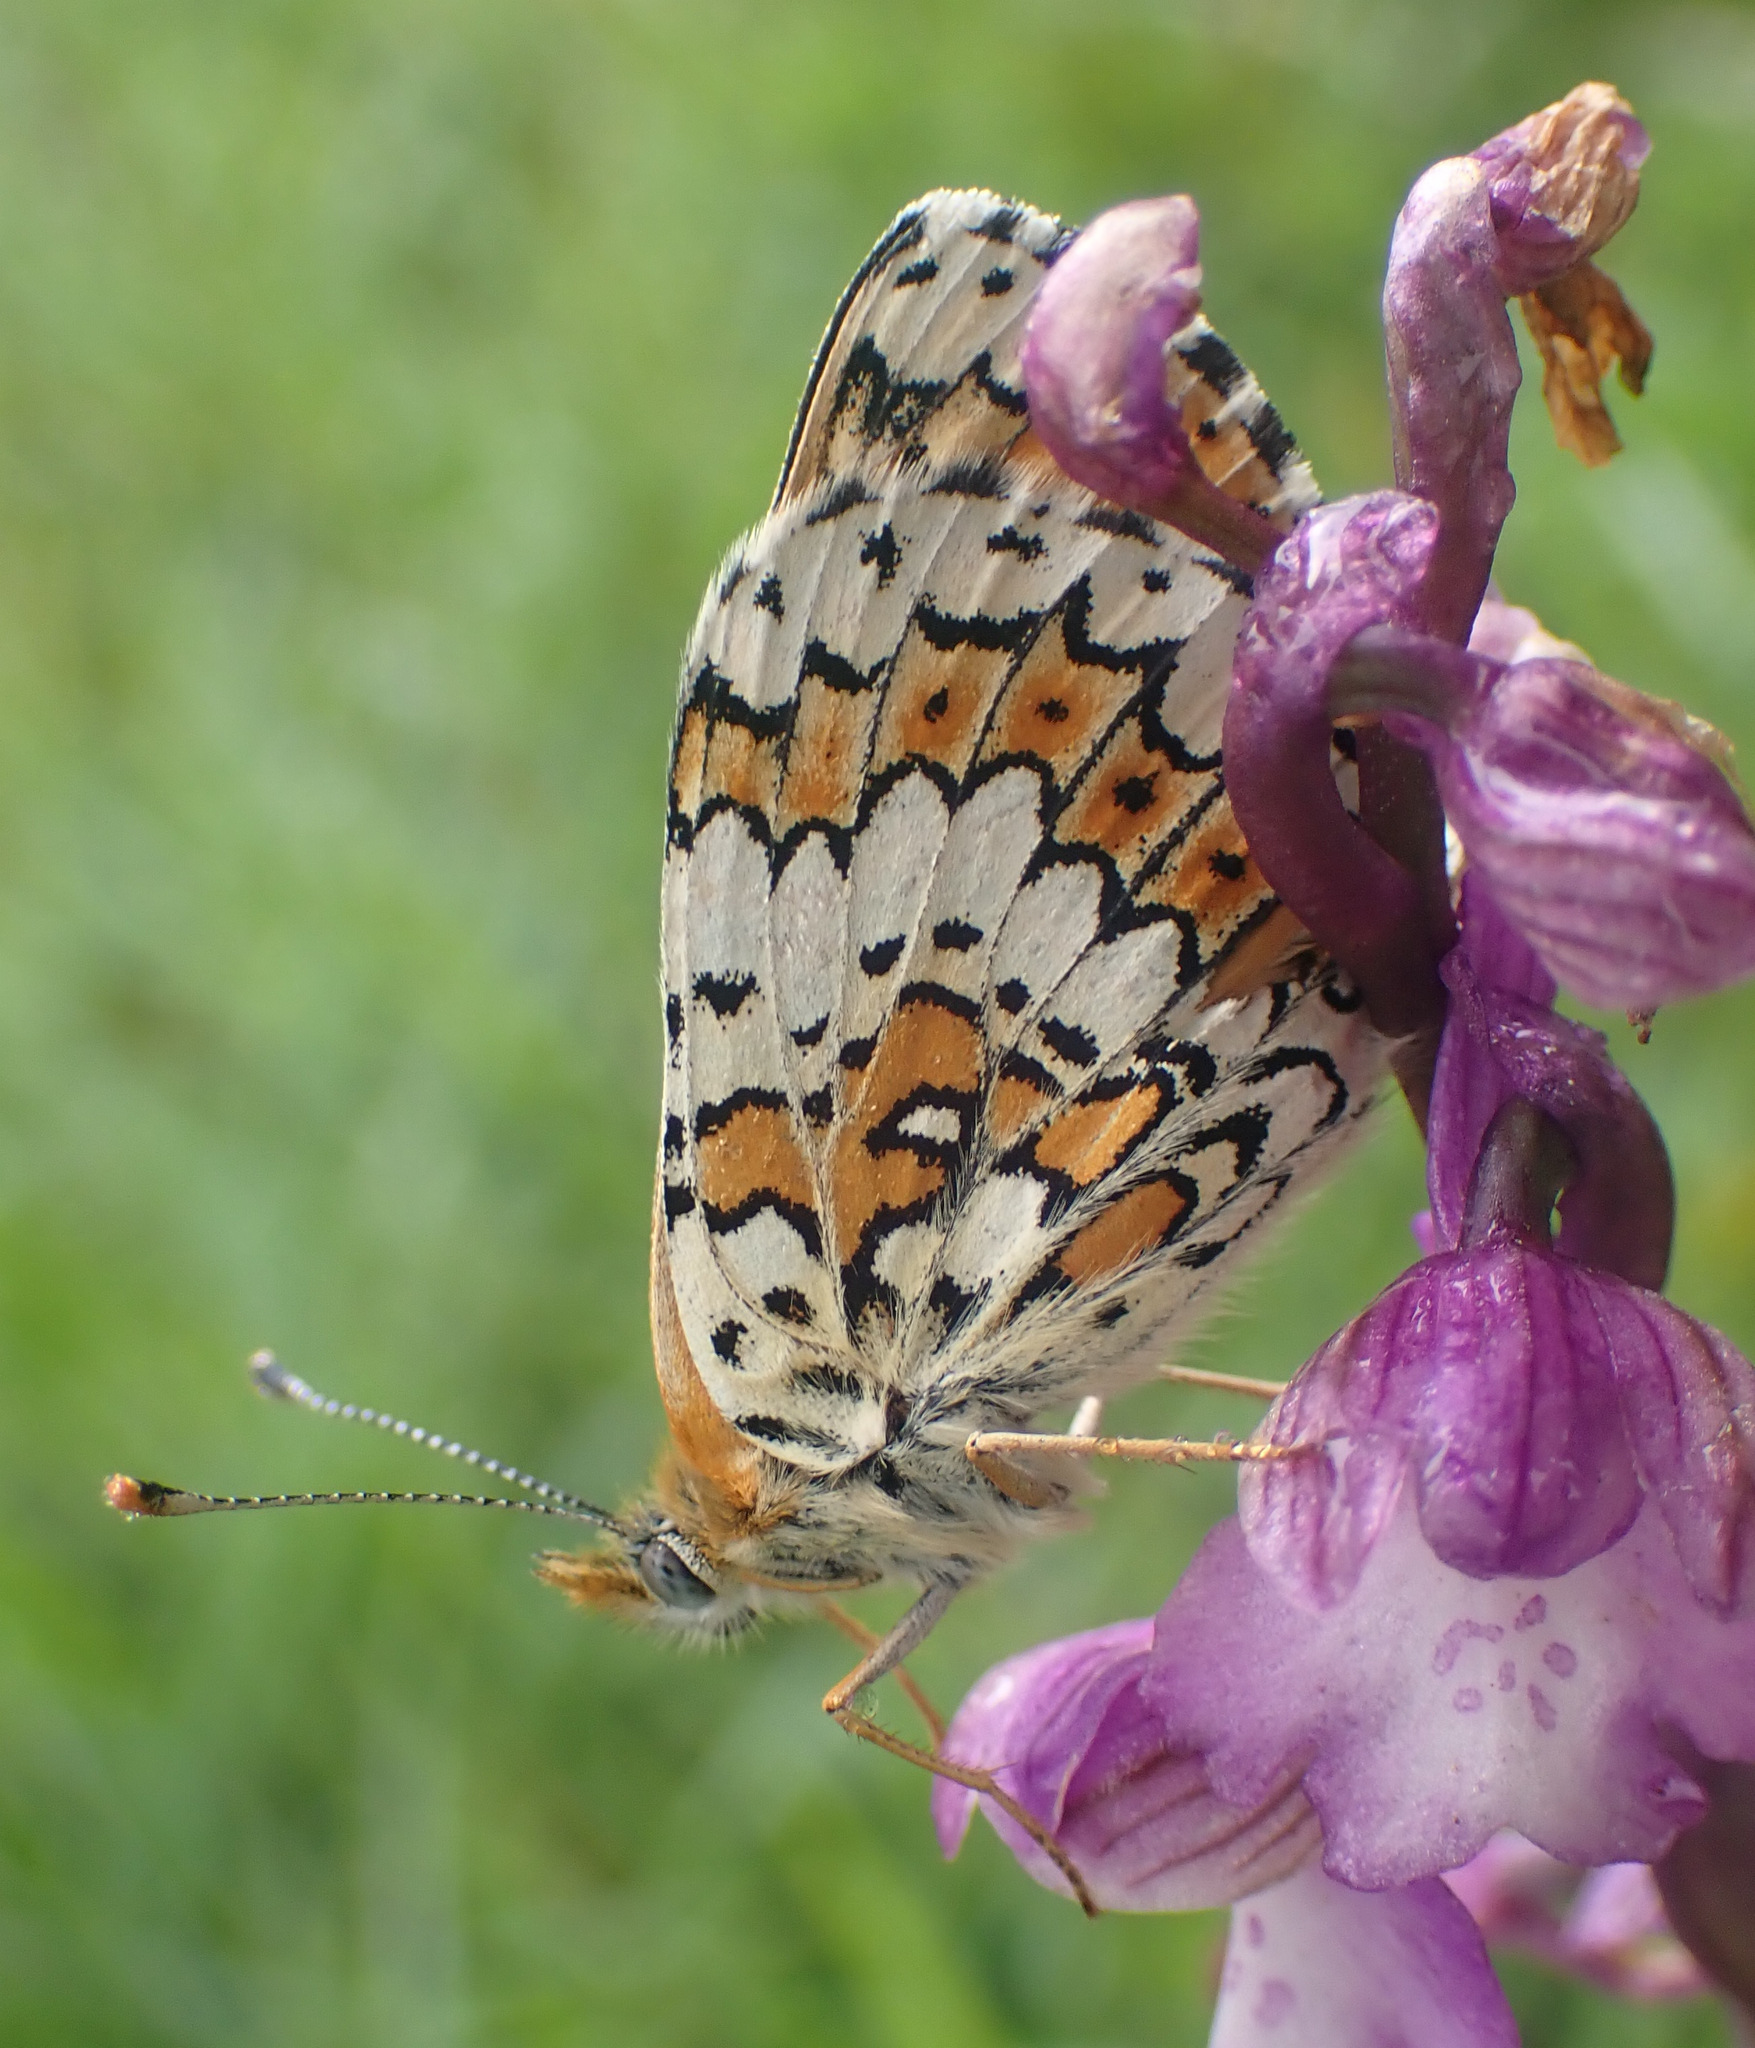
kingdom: Animalia
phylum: Arthropoda
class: Insecta
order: Lepidoptera
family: Nymphalidae
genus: Melitaea
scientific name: Melitaea cinxia
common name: Glanville fritillary
